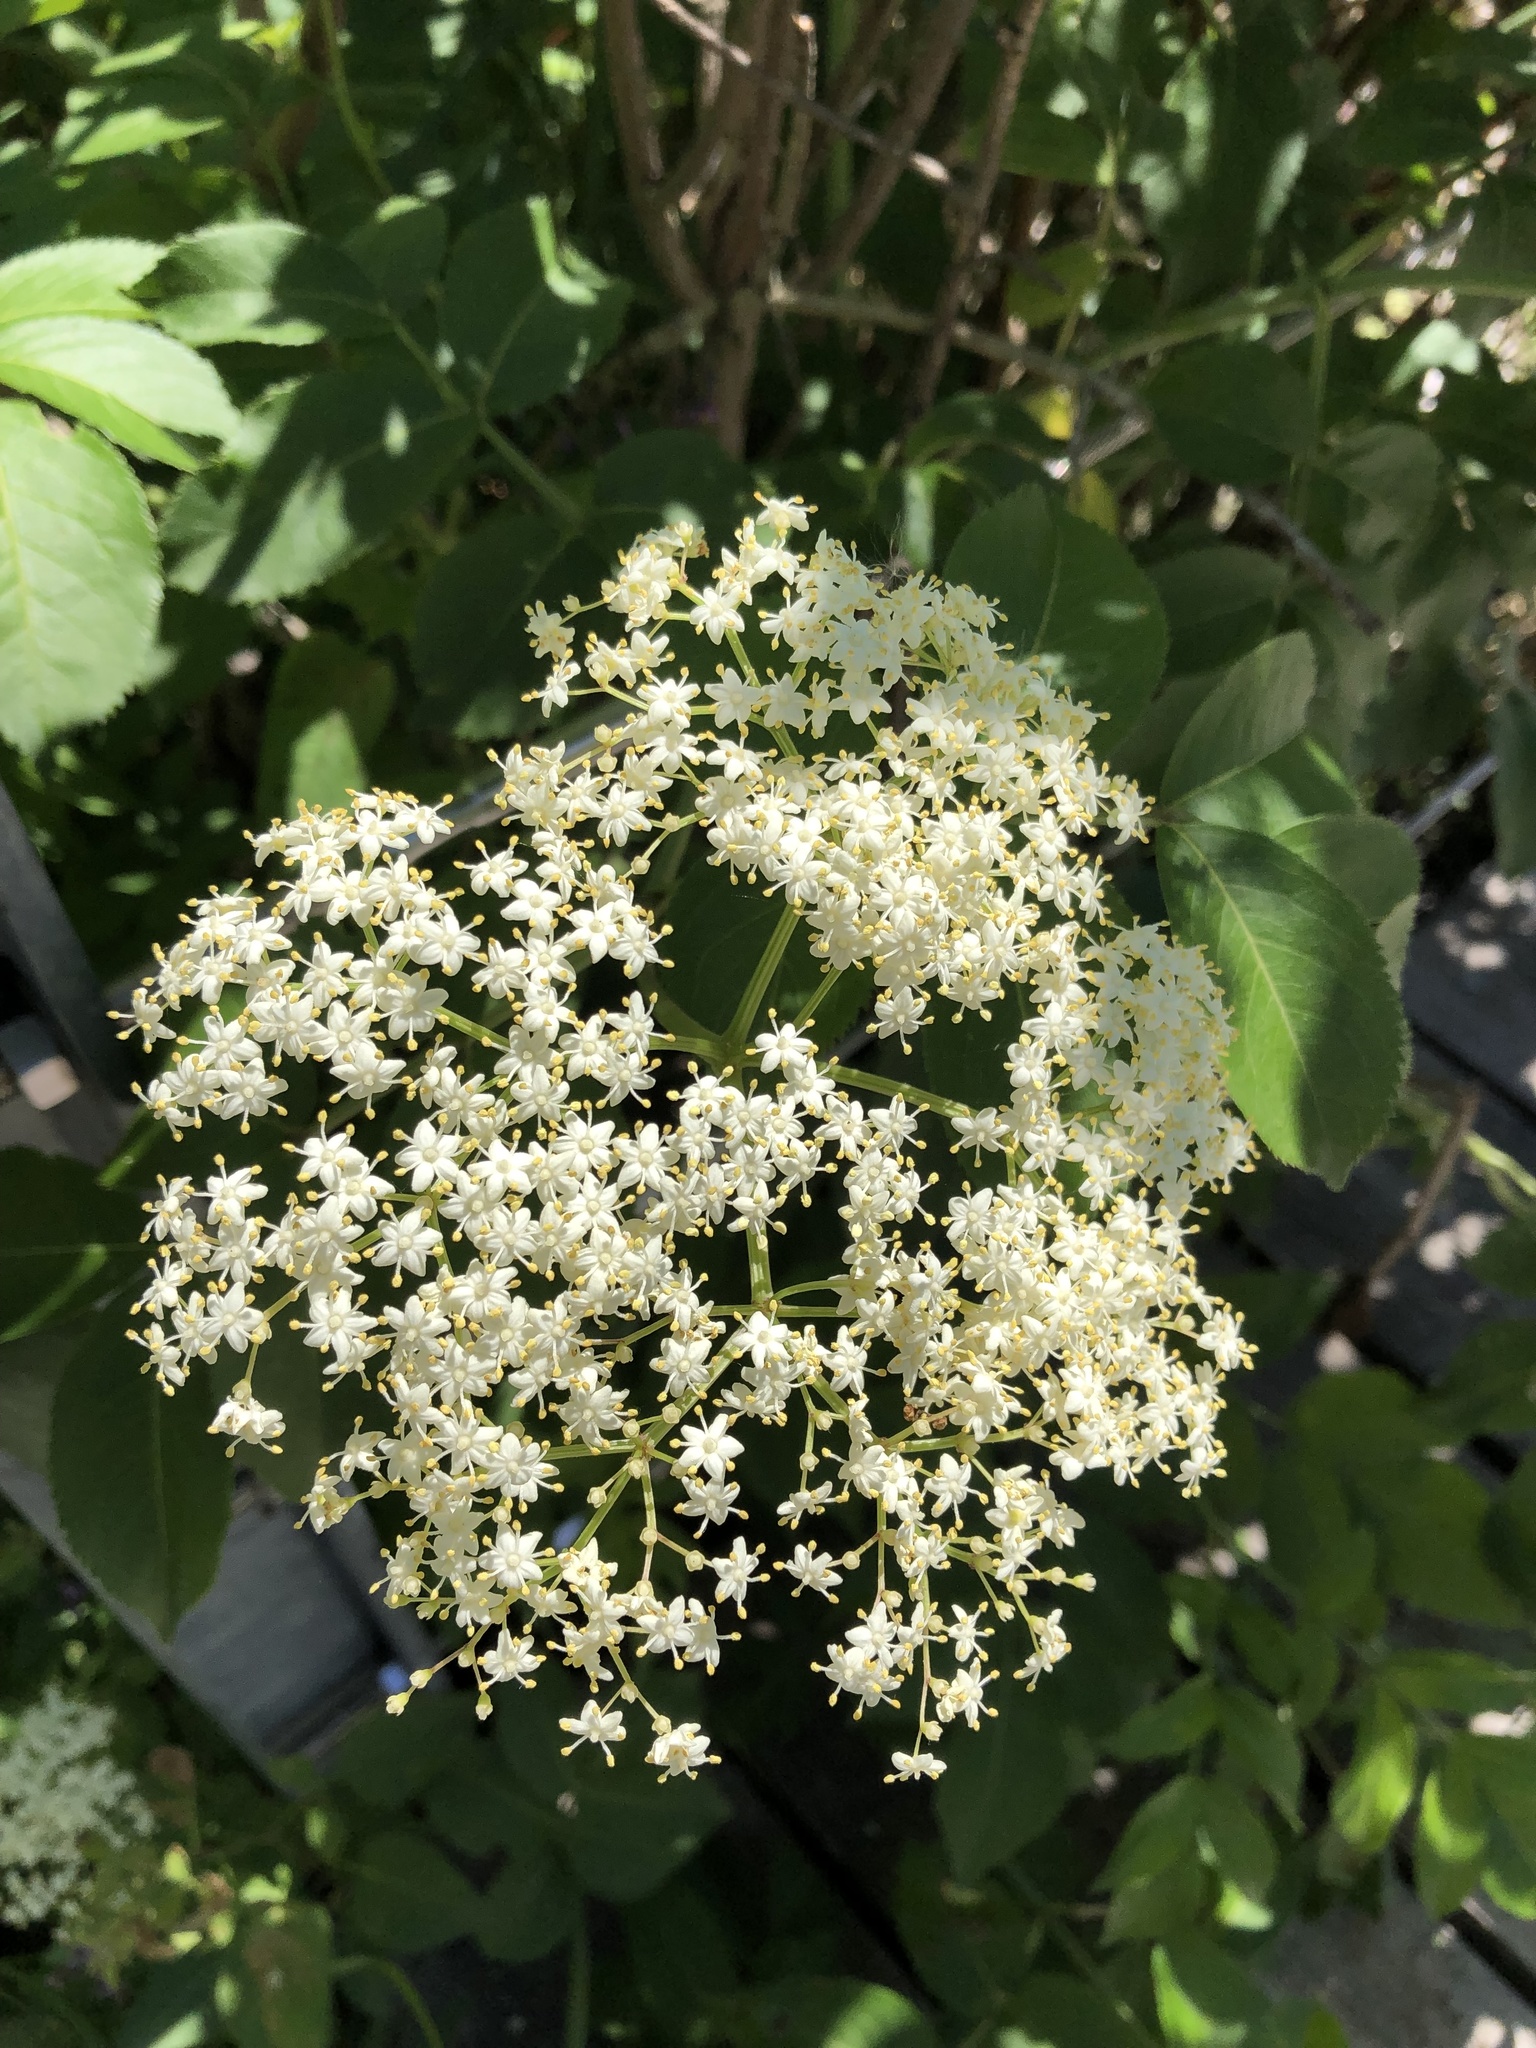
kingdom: Plantae
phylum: Tracheophyta
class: Magnoliopsida
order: Dipsacales
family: Viburnaceae
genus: Sambucus
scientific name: Sambucus canadensis
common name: American elder
